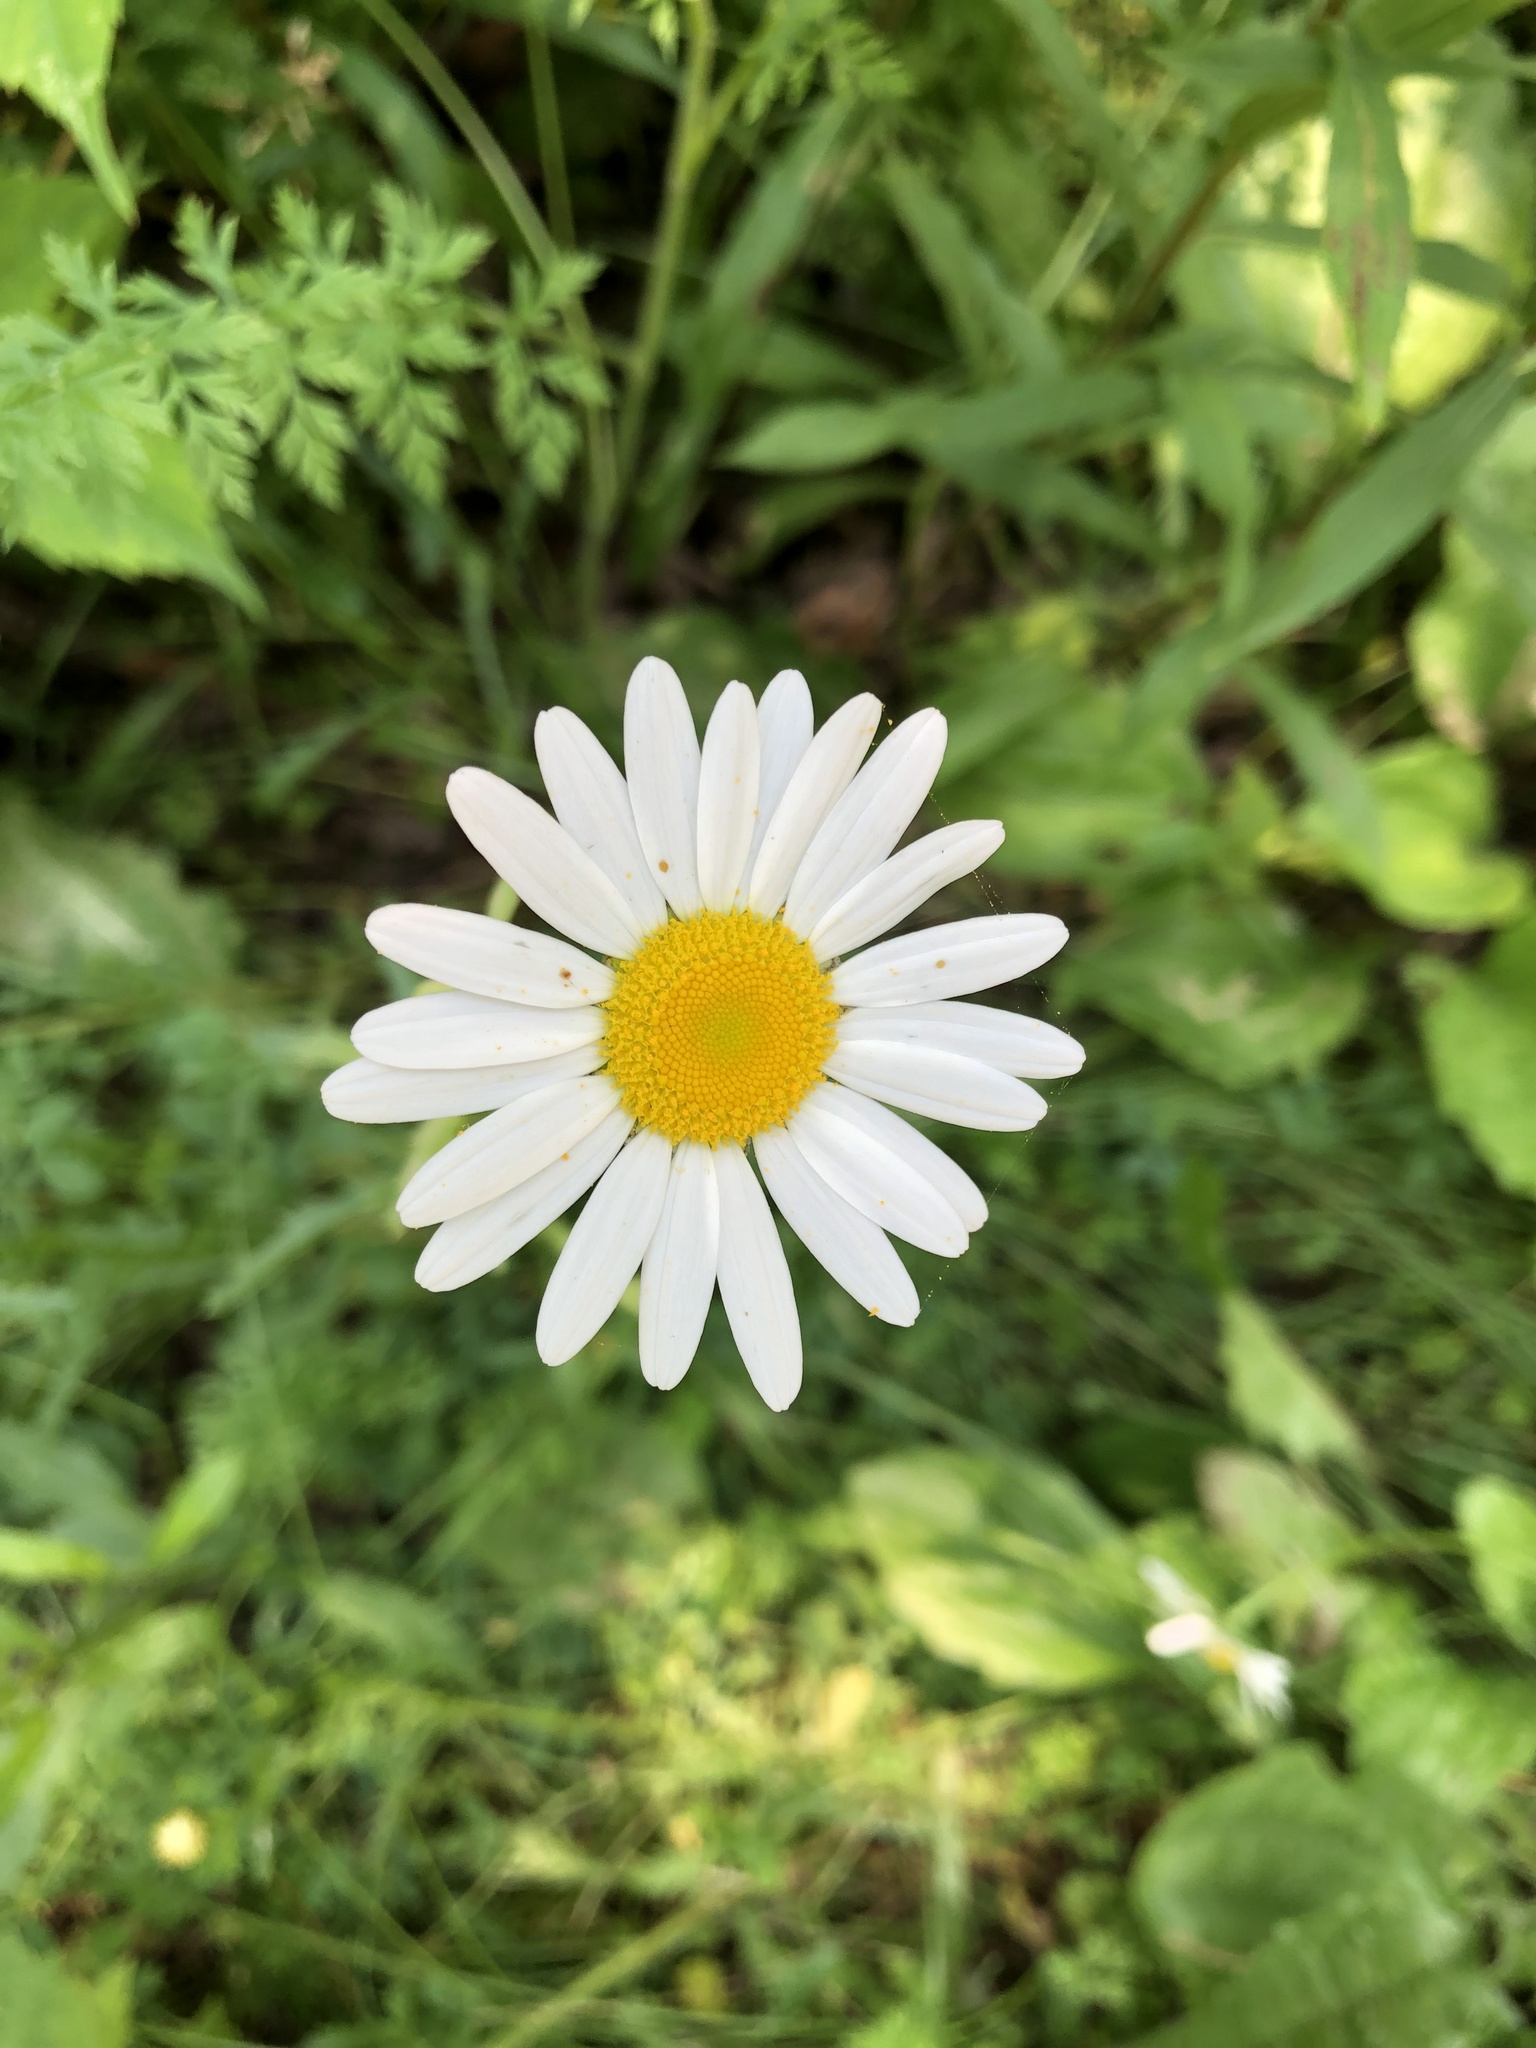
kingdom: Plantae
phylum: Tracheophyta
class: Magnoliopsida
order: Asterales
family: Asteraceae
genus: Leucanthemum
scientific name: Leucanthemum vulgare
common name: Oxeye daisy
